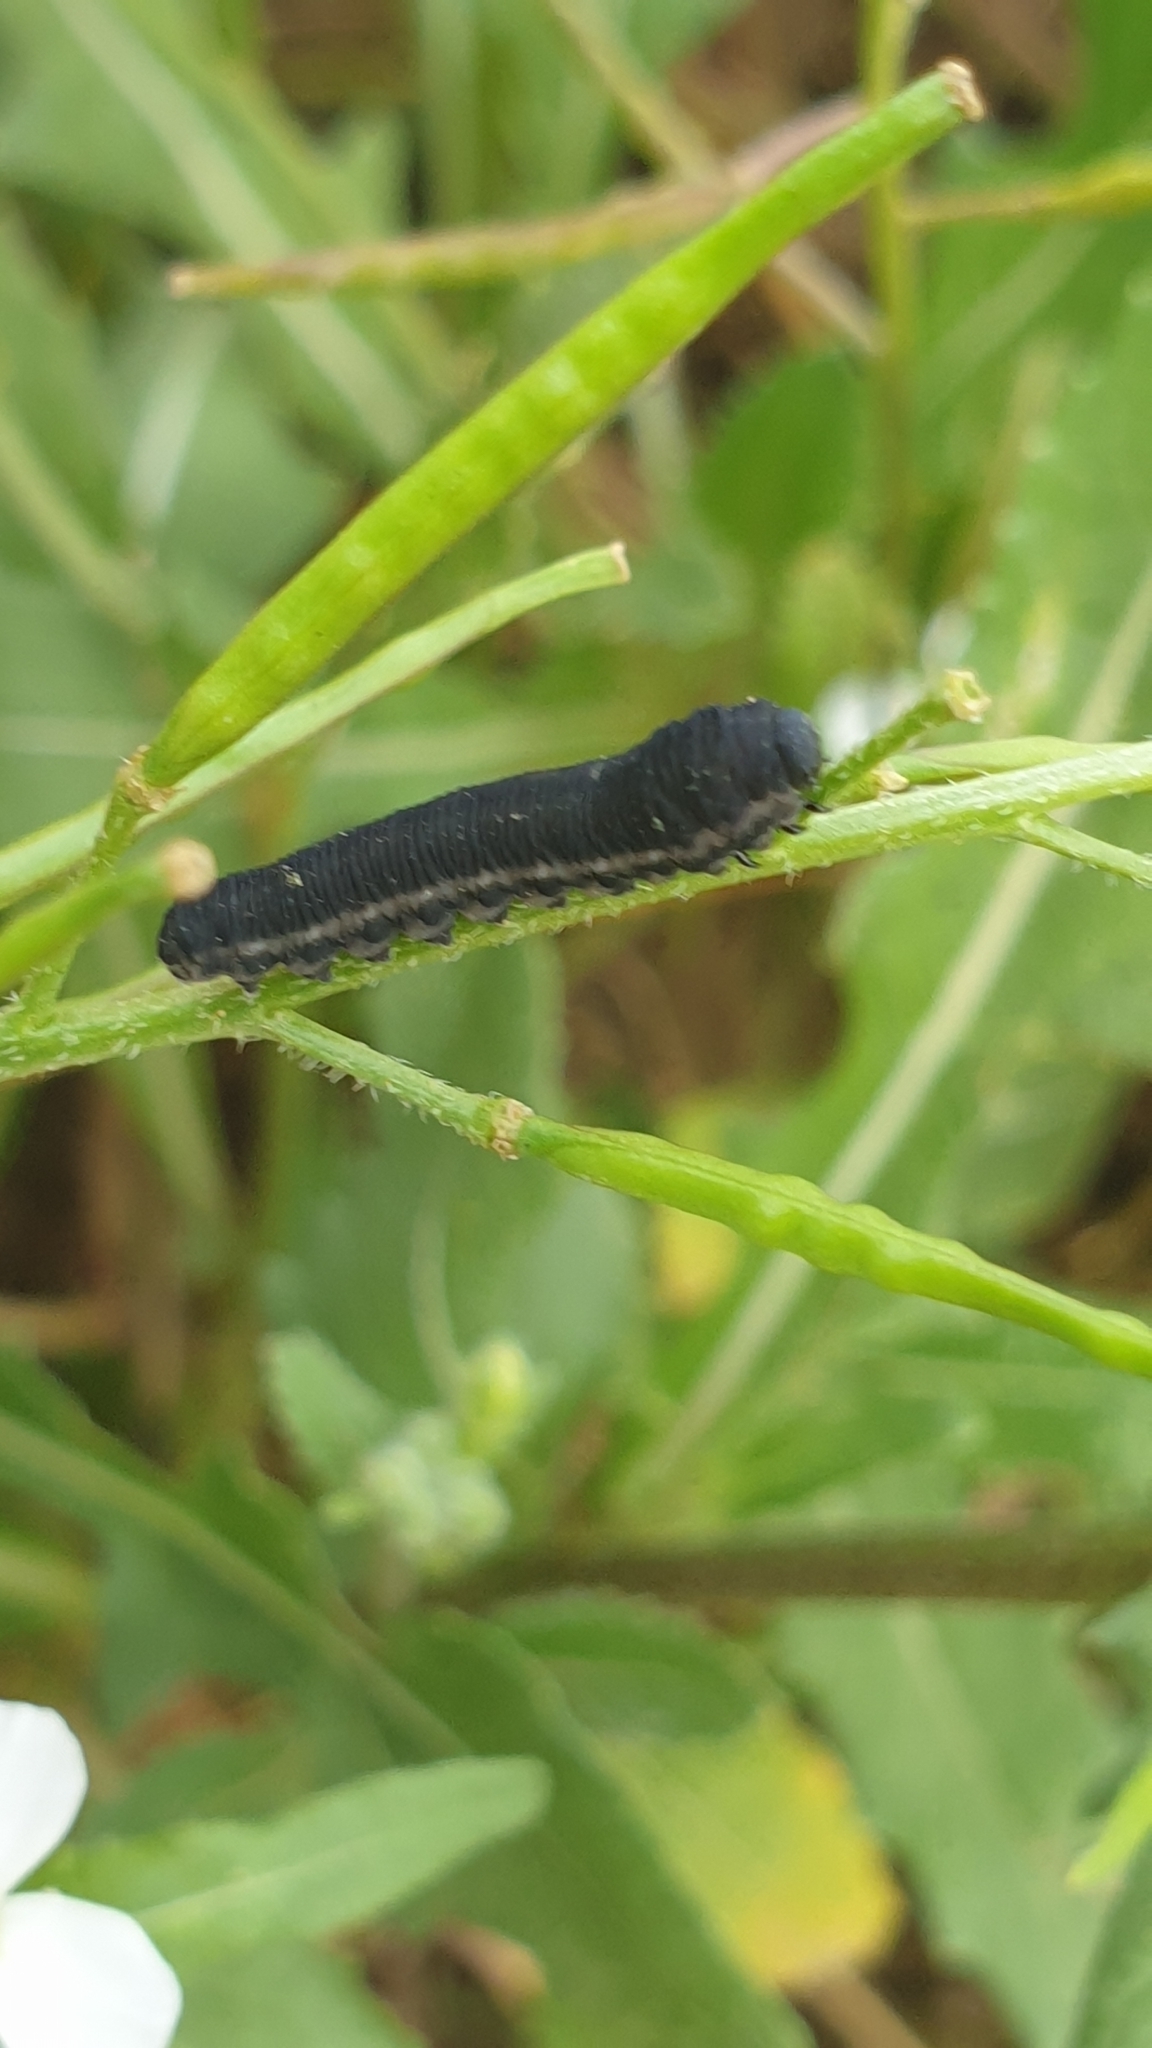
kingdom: Animalia
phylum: Arthropoda
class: Insecta
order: Hymenoptera
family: Tenthredinidae
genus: Athalia
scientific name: Athalia rosae
